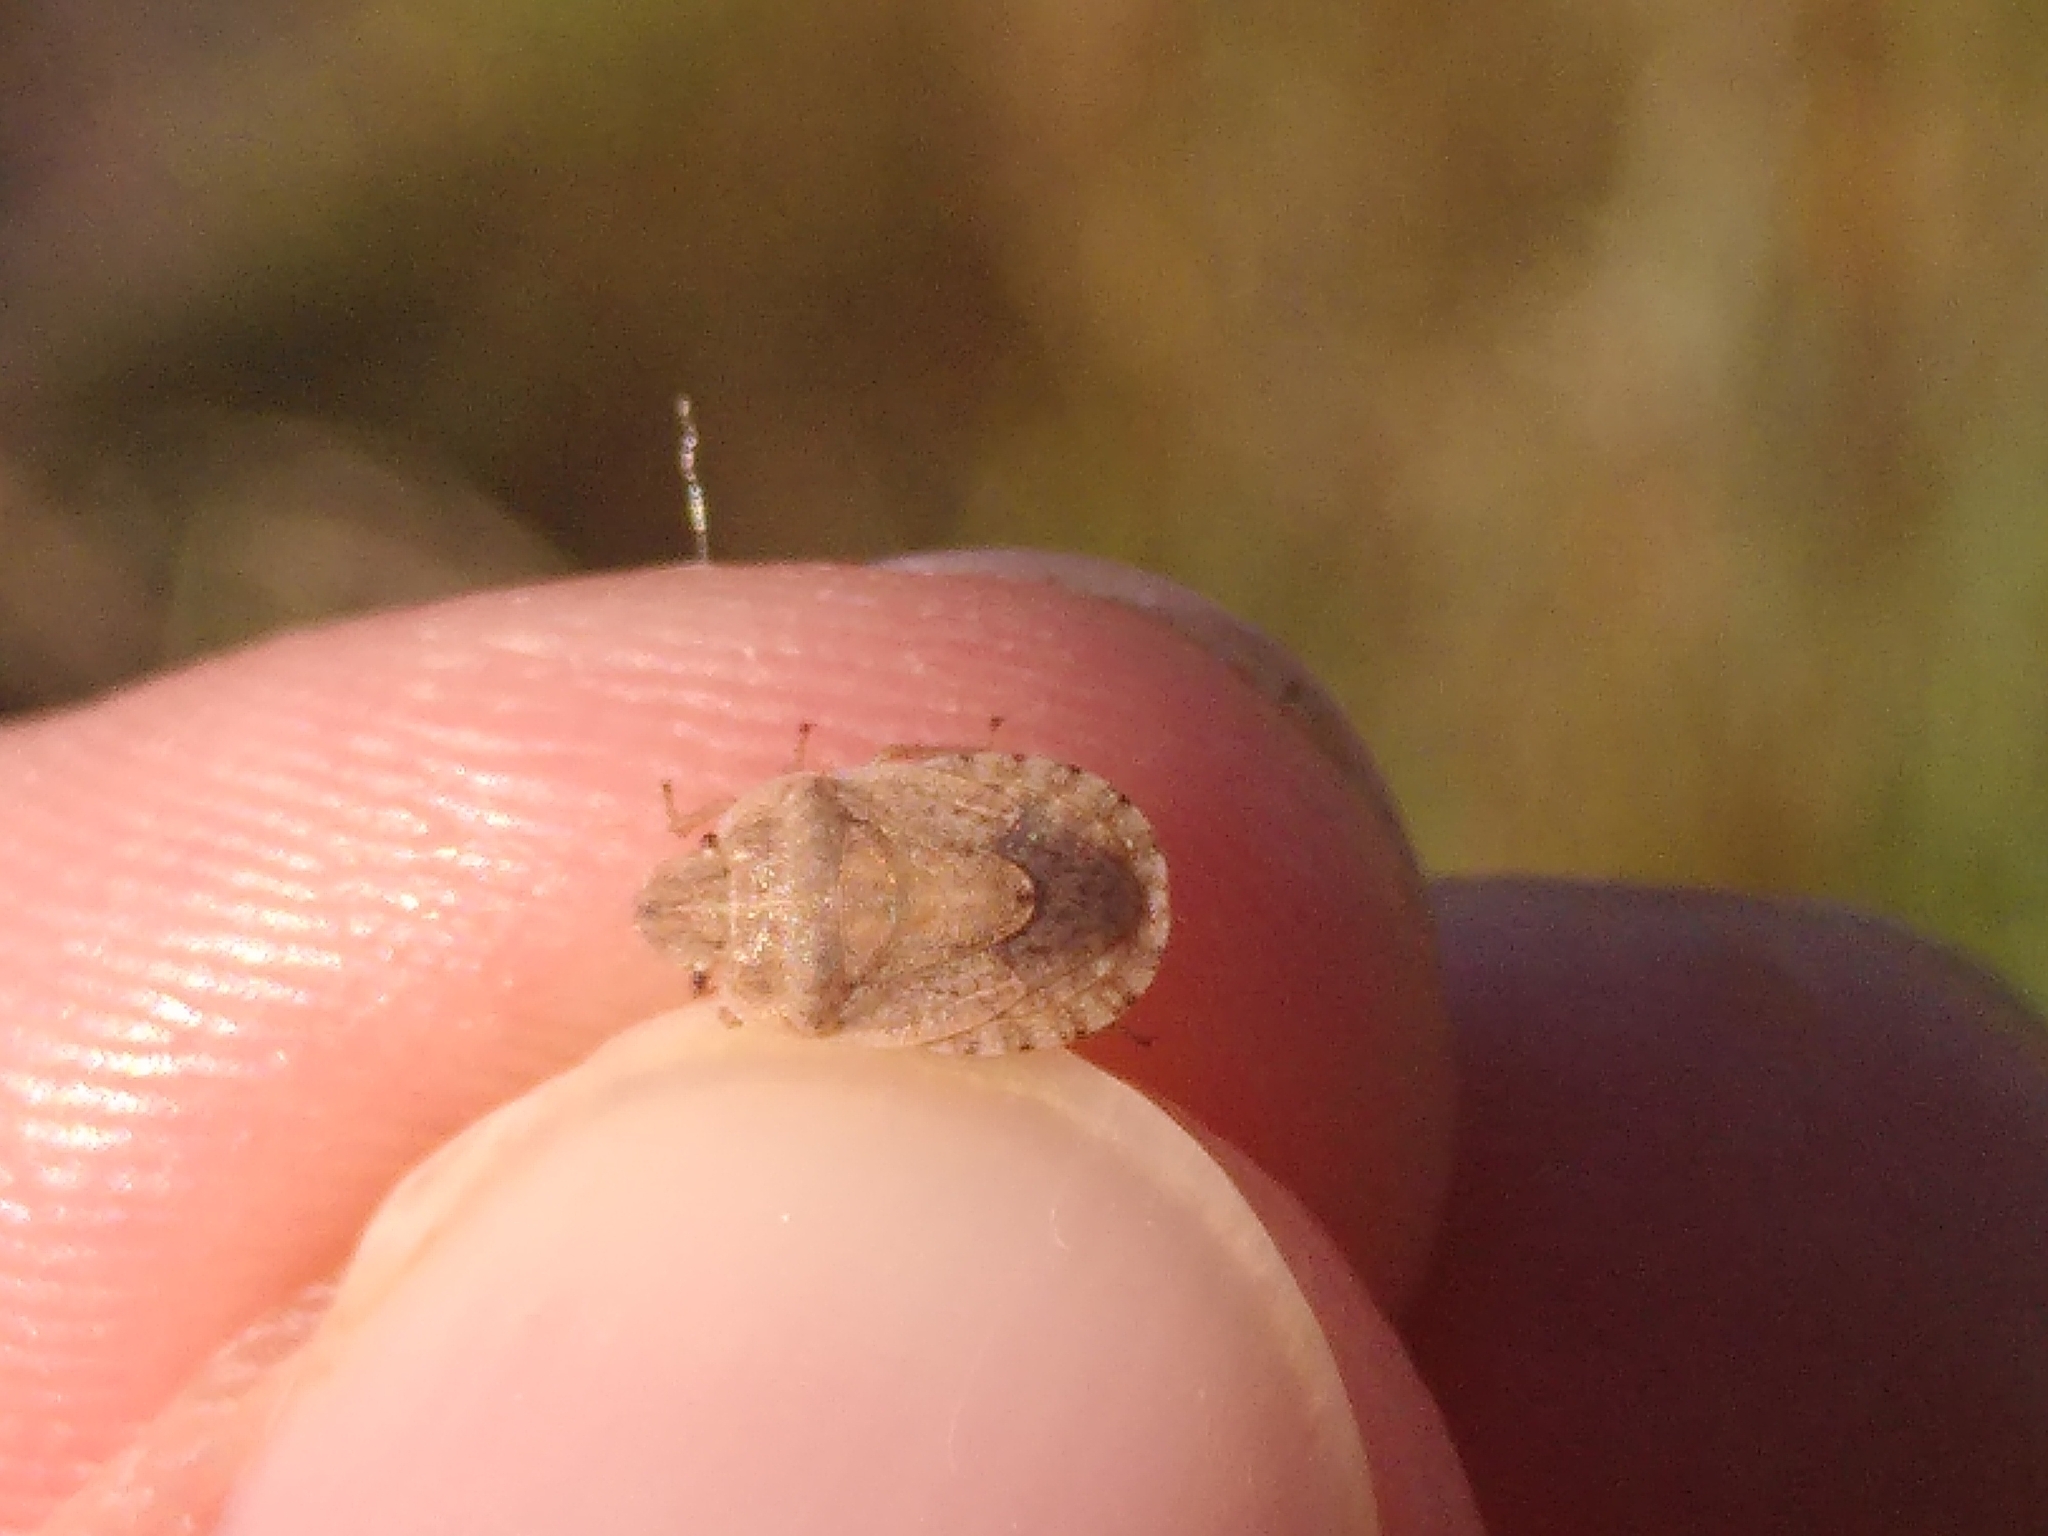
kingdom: Animalia
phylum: Arthropoda
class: Insecta
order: Hemiptera
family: Pentatomidae
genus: Sciocoris
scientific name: Sciocoris macrocephalus
